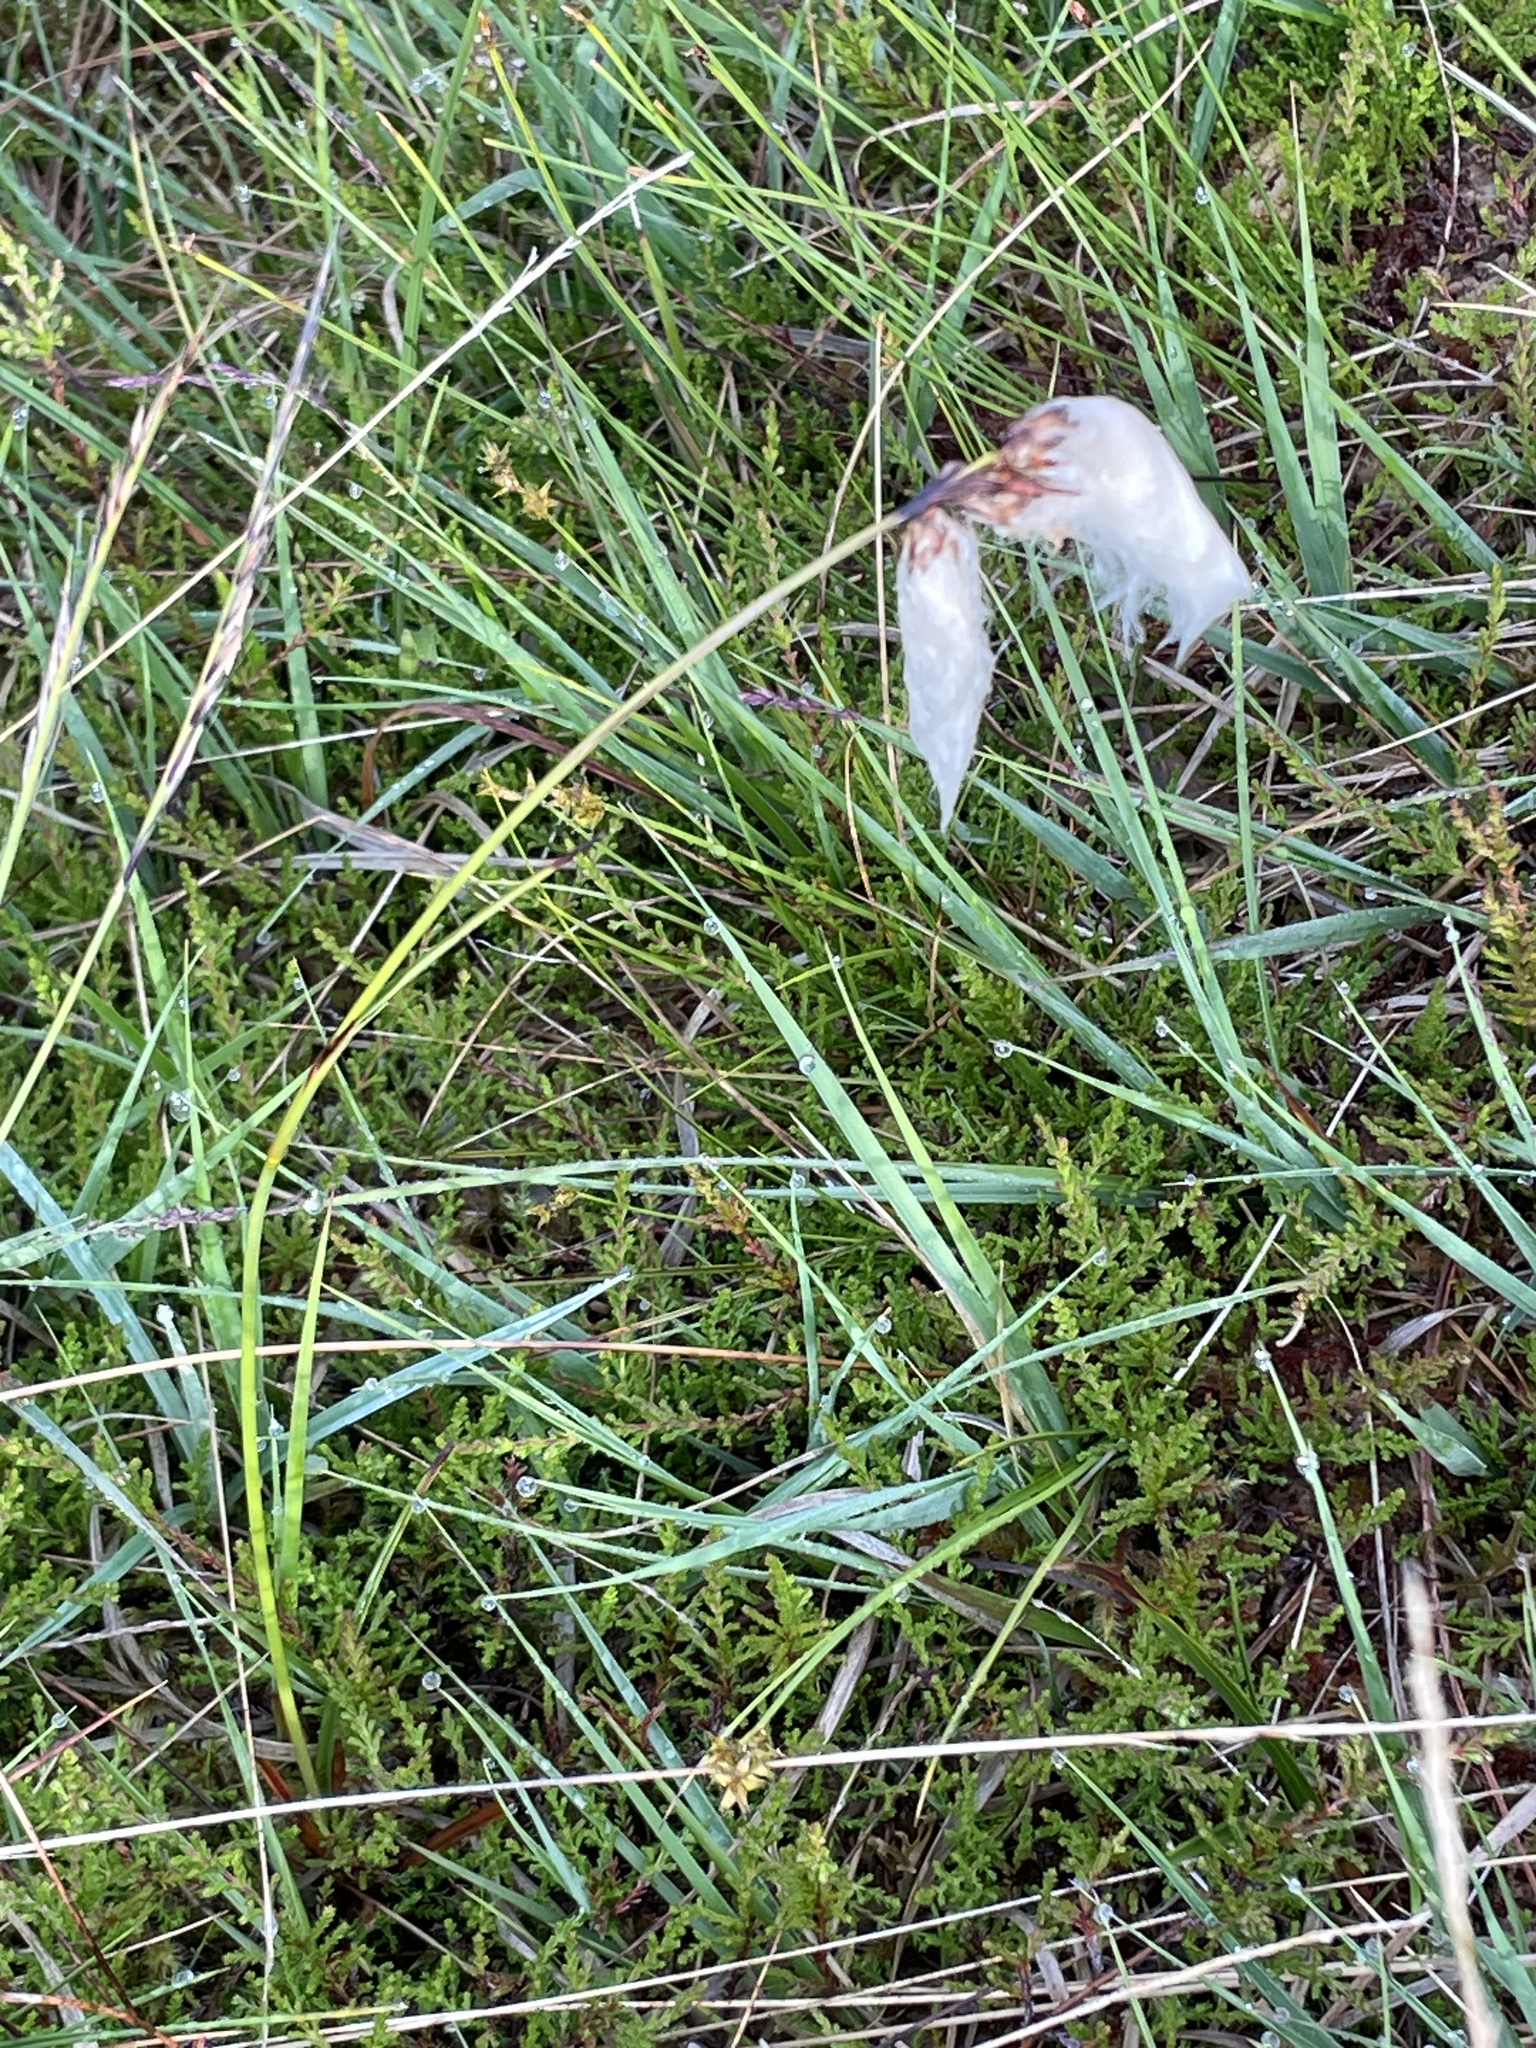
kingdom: Plantae
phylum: Tracheophyta
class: Liliopsida
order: Poales
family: Cyperaceae
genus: Eriophorum
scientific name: Eriophorum angustifolium
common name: Common cottongrass
